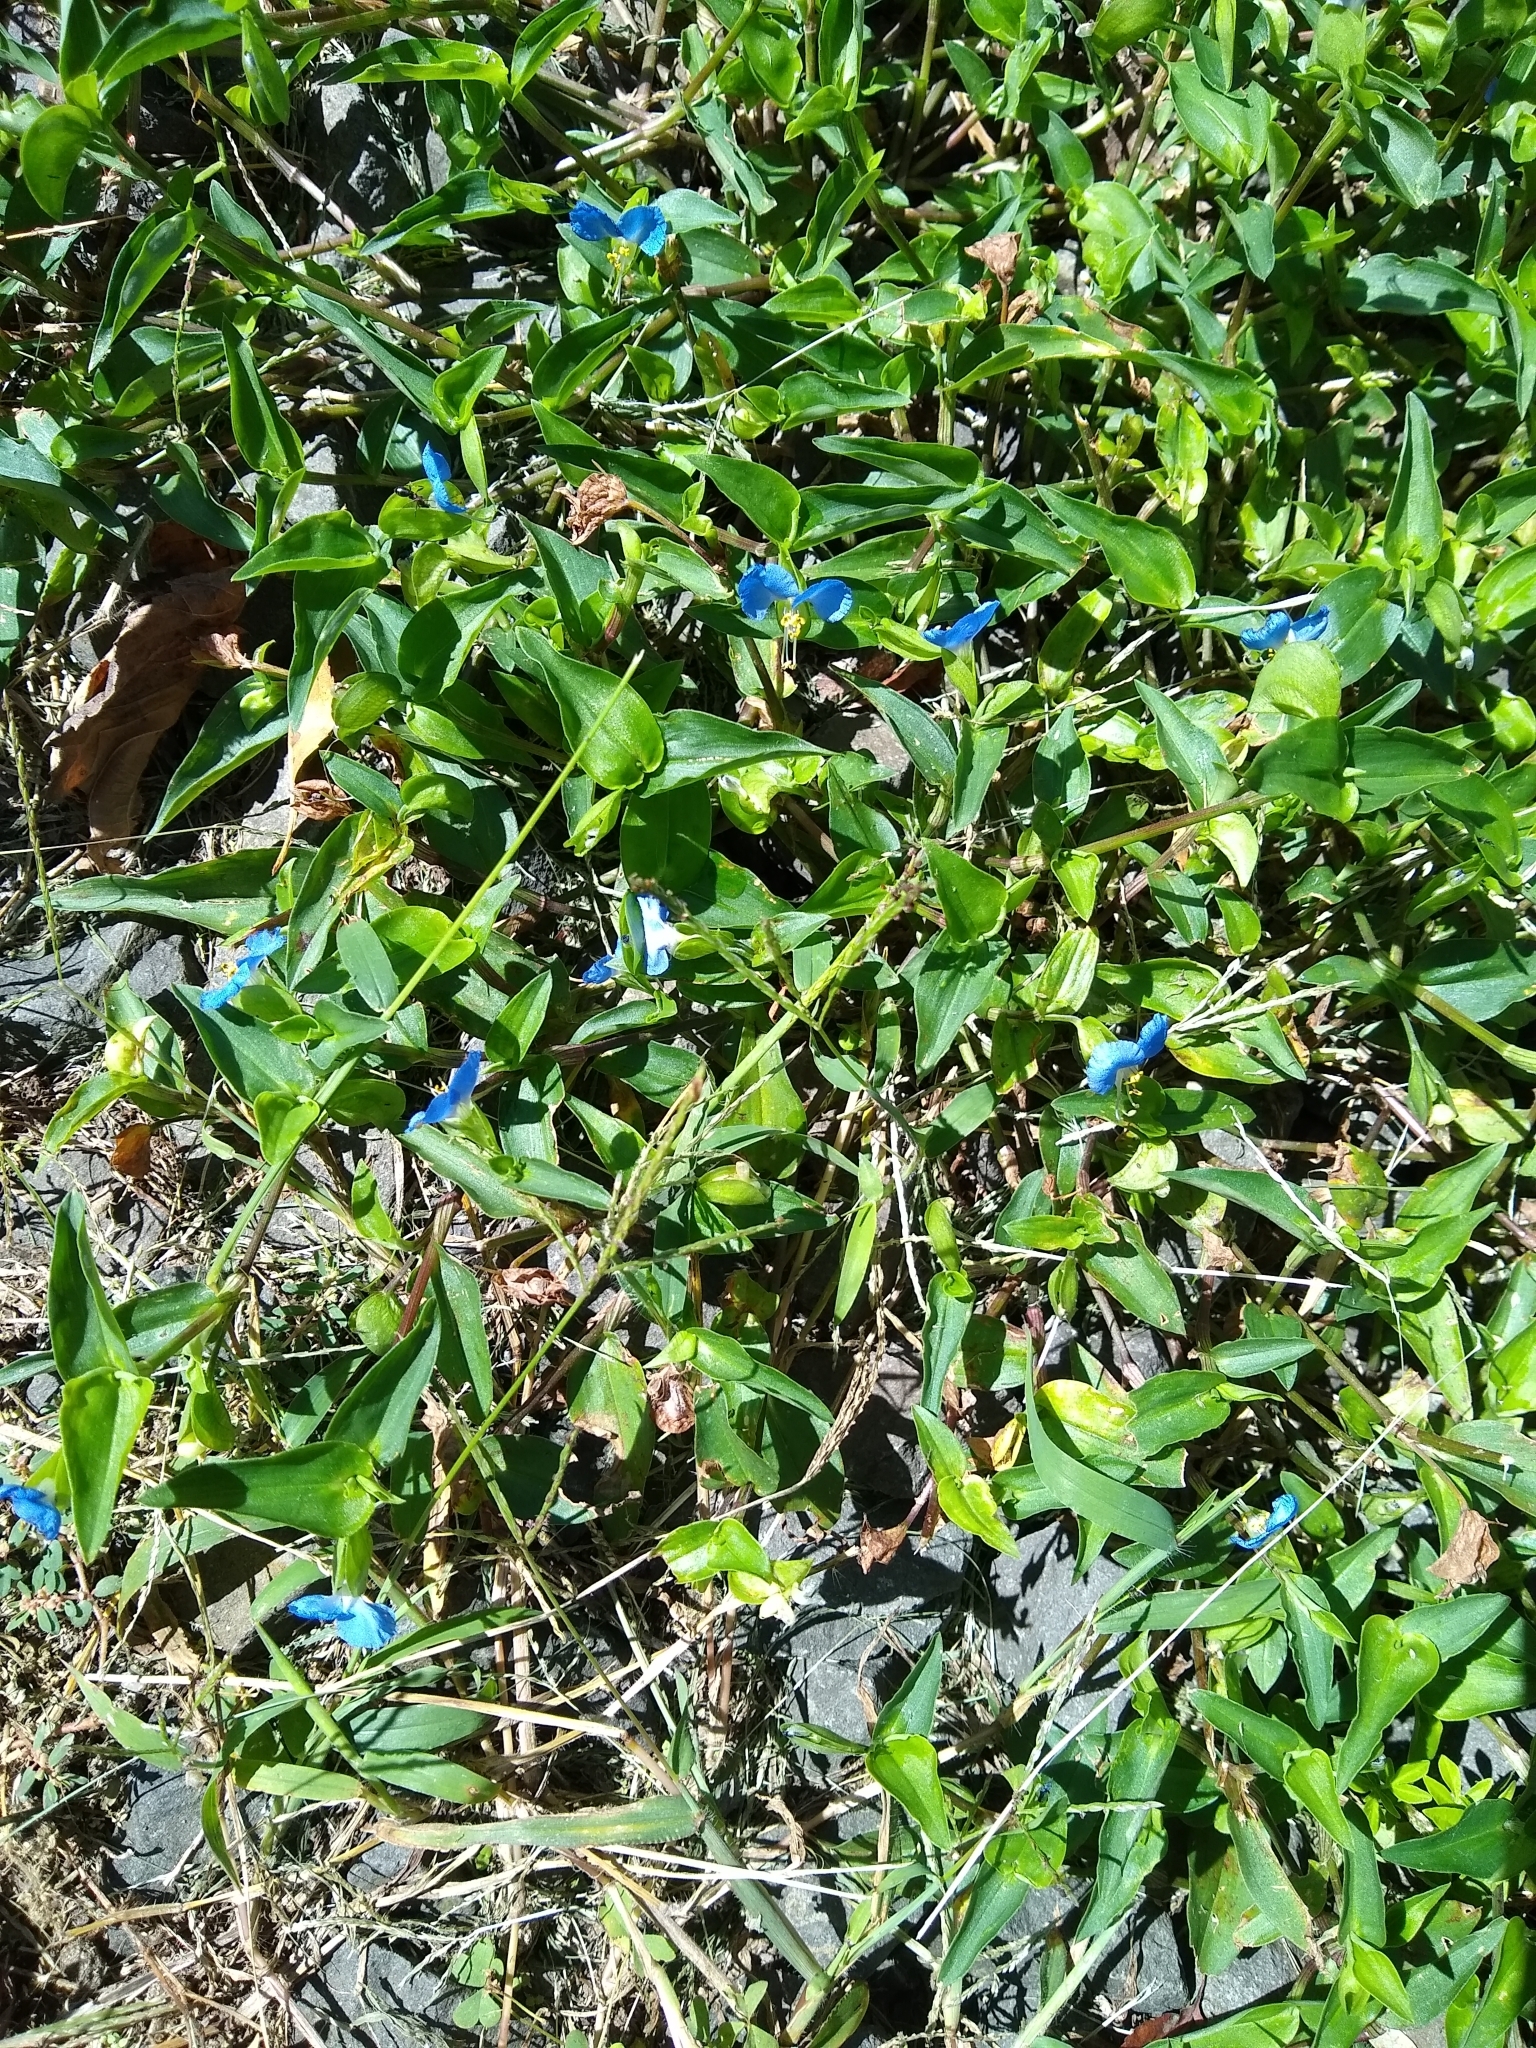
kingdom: Plantae
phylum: Tracheophyta
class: Liliopsida
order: Commelinales
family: Commelinaceae
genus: Commelina
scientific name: Commelina communis
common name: Asiatic dayflower
